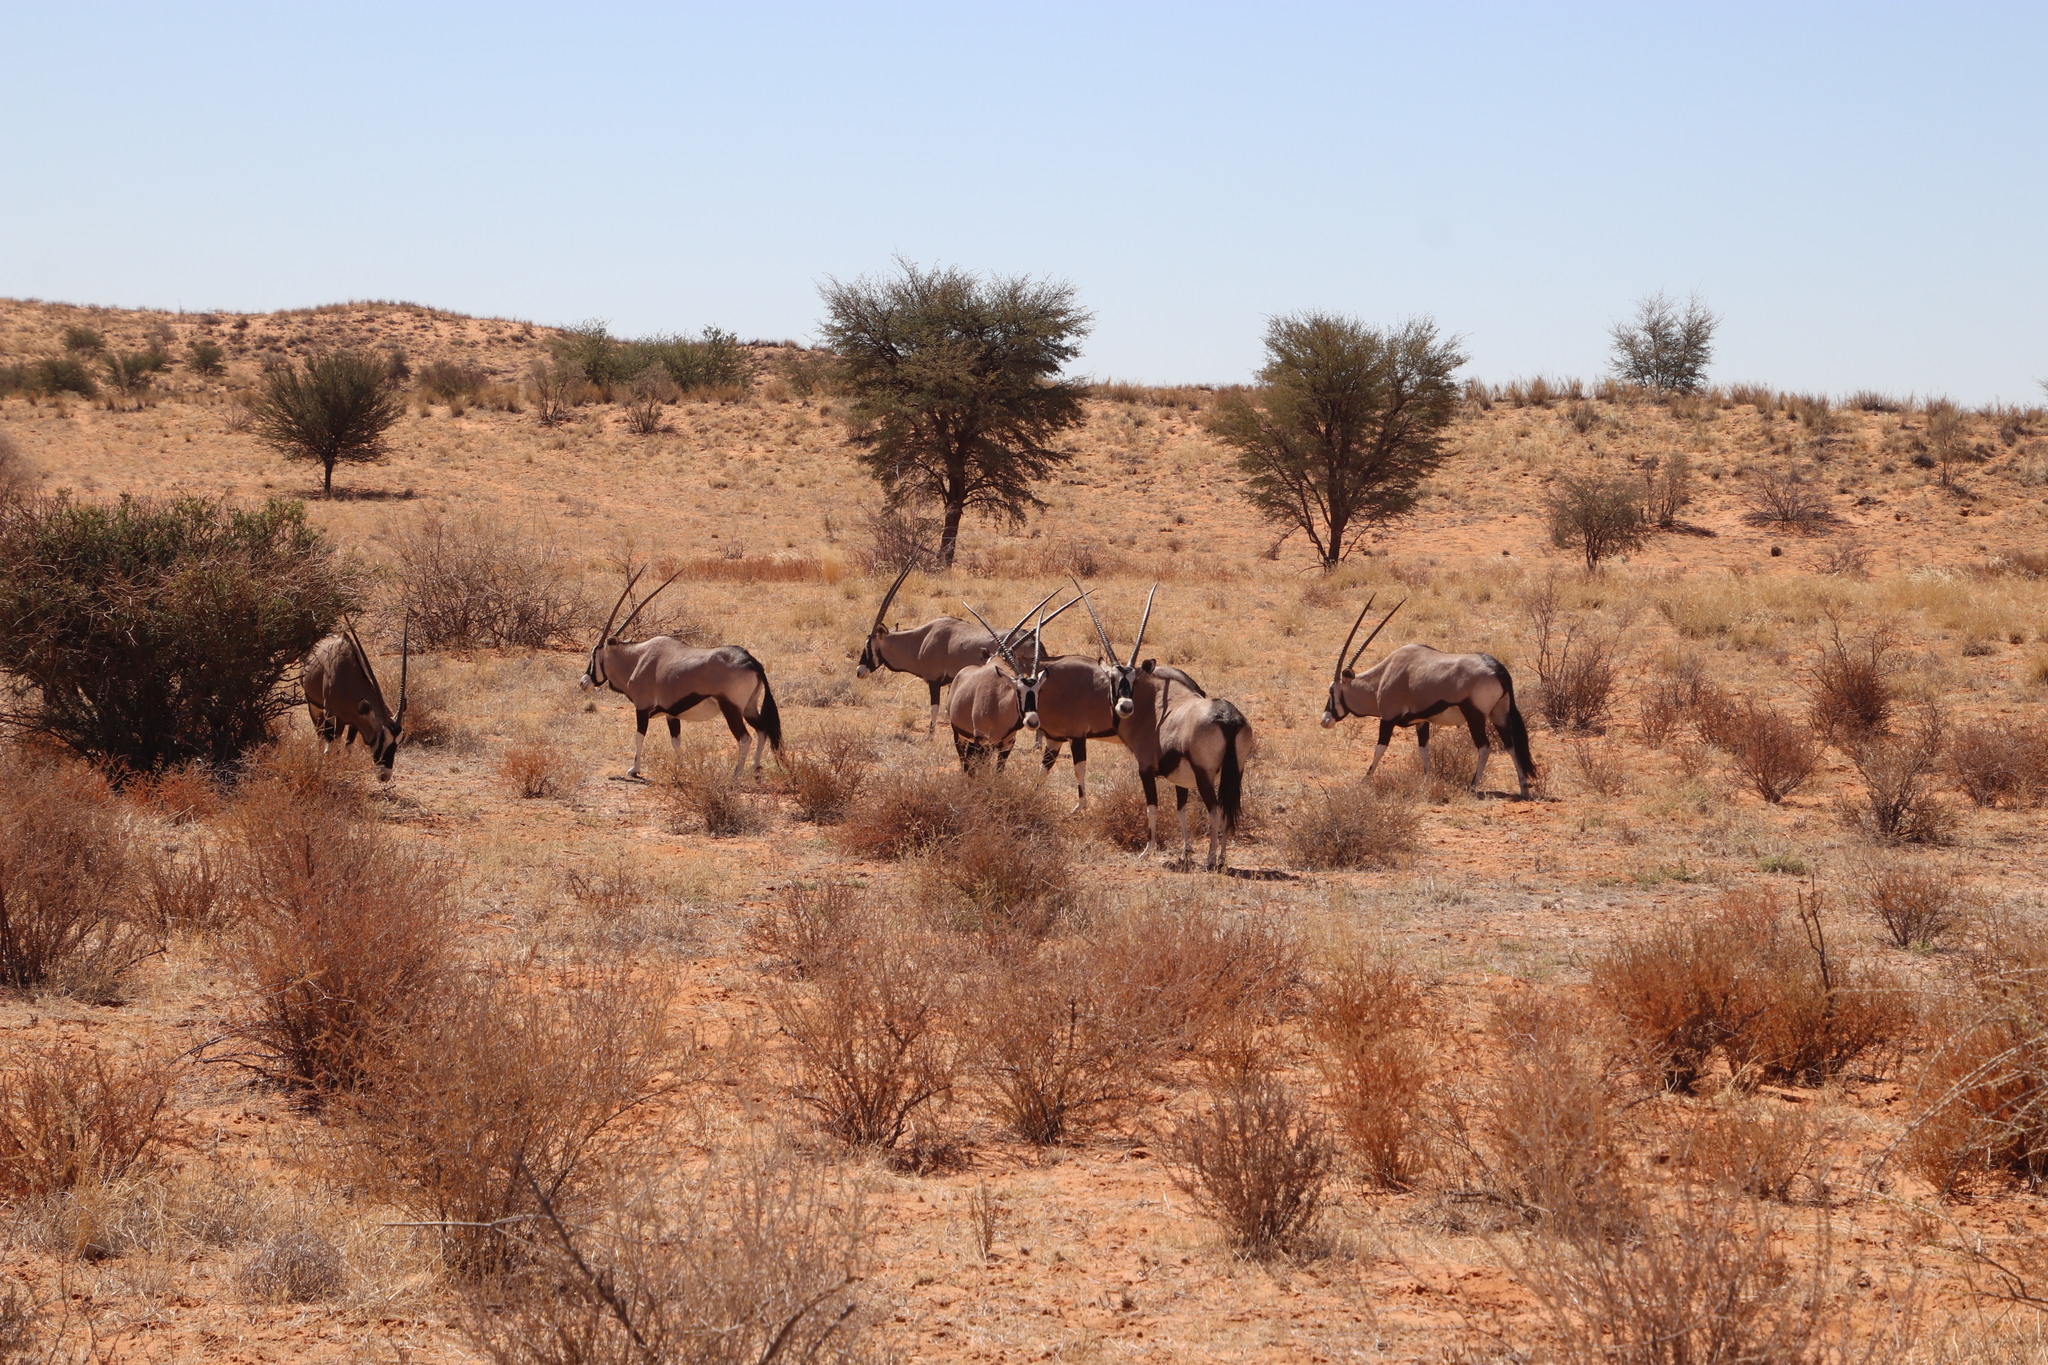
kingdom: Animalia
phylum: Chordata
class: Mammalia
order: Artiodactyla
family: Bovidae
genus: Oryx
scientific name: Oryx gazella
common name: Gemsbok
